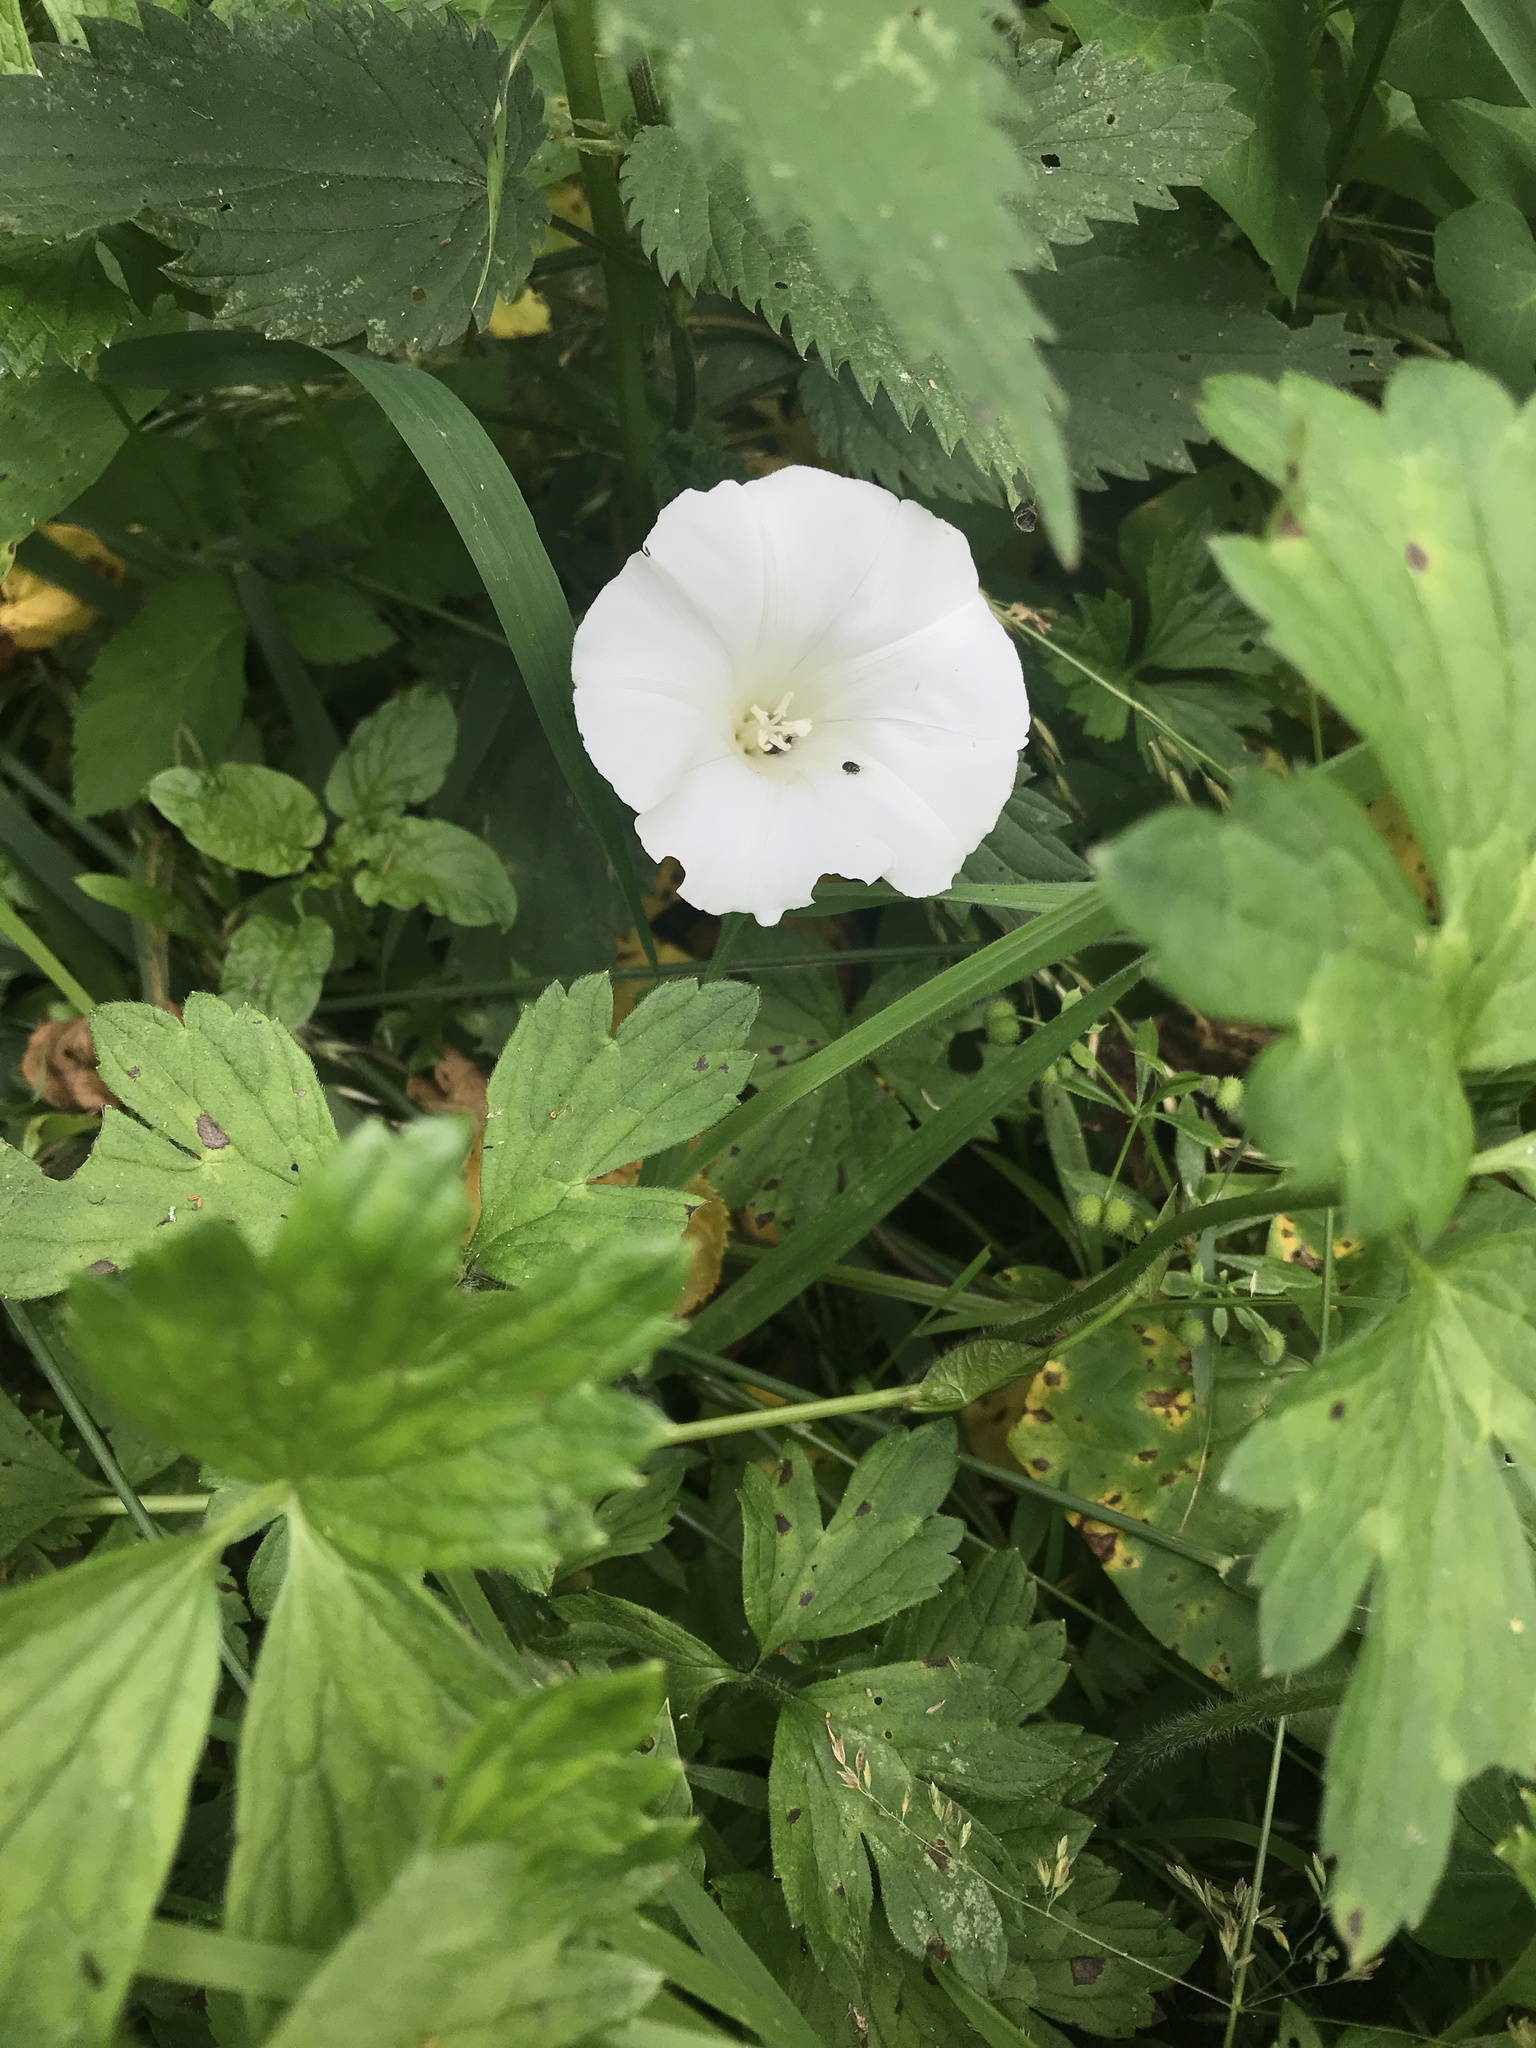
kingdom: Plantae
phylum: Tracheophyta
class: Magnoliopsida
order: Solanales
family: Convolvulaceae
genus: Calystegia
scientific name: Calystegia sepium
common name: Hedge bindweed
